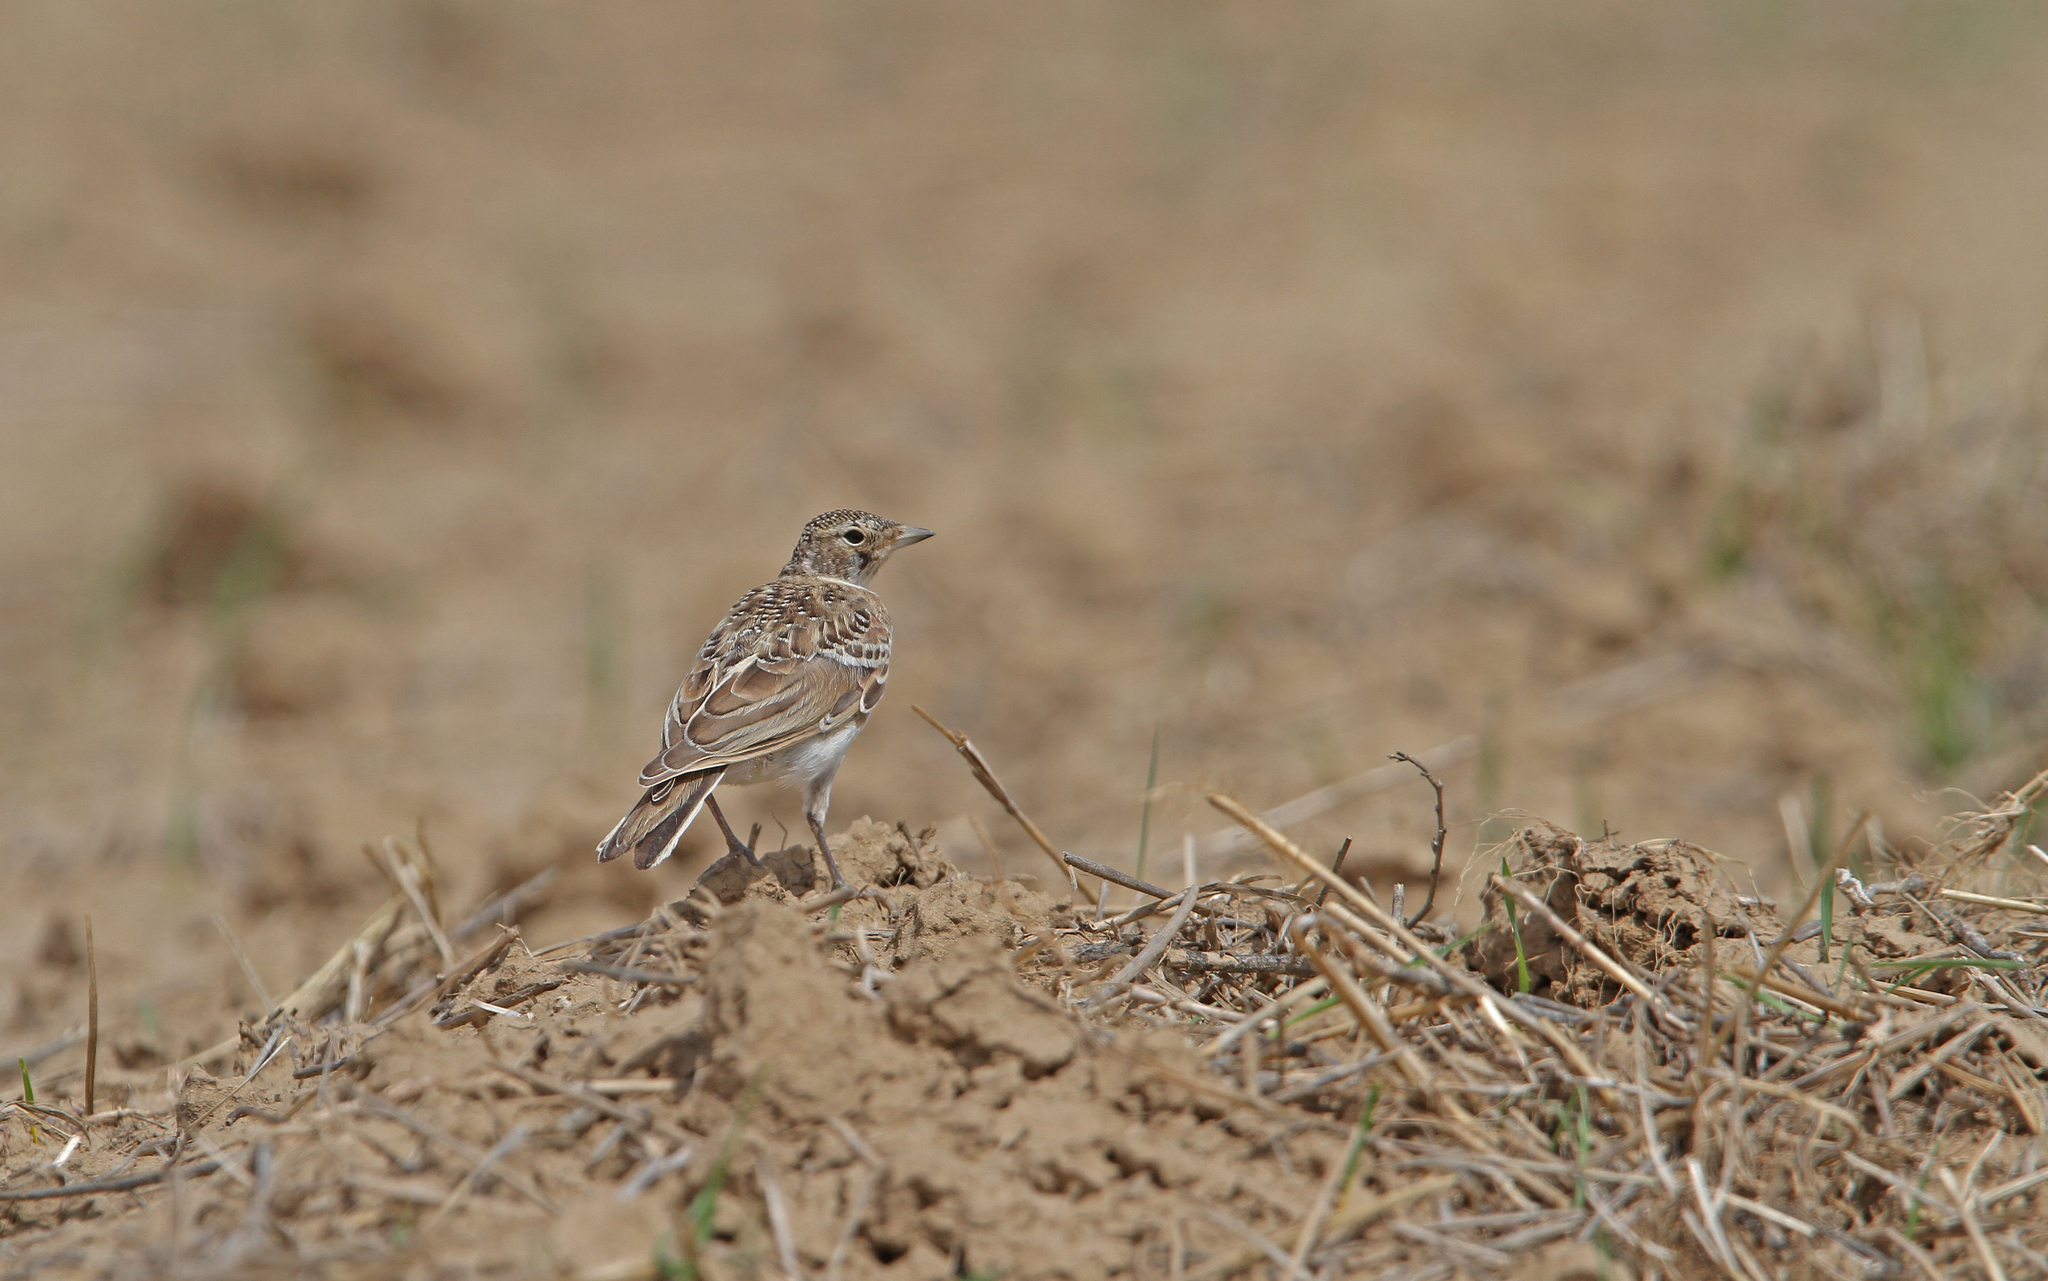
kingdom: Animalia
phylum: Chordata
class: Aves
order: Passeriformes
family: Alaudidae
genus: Eremophila
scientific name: Eremophila alpestris
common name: Horned lark
